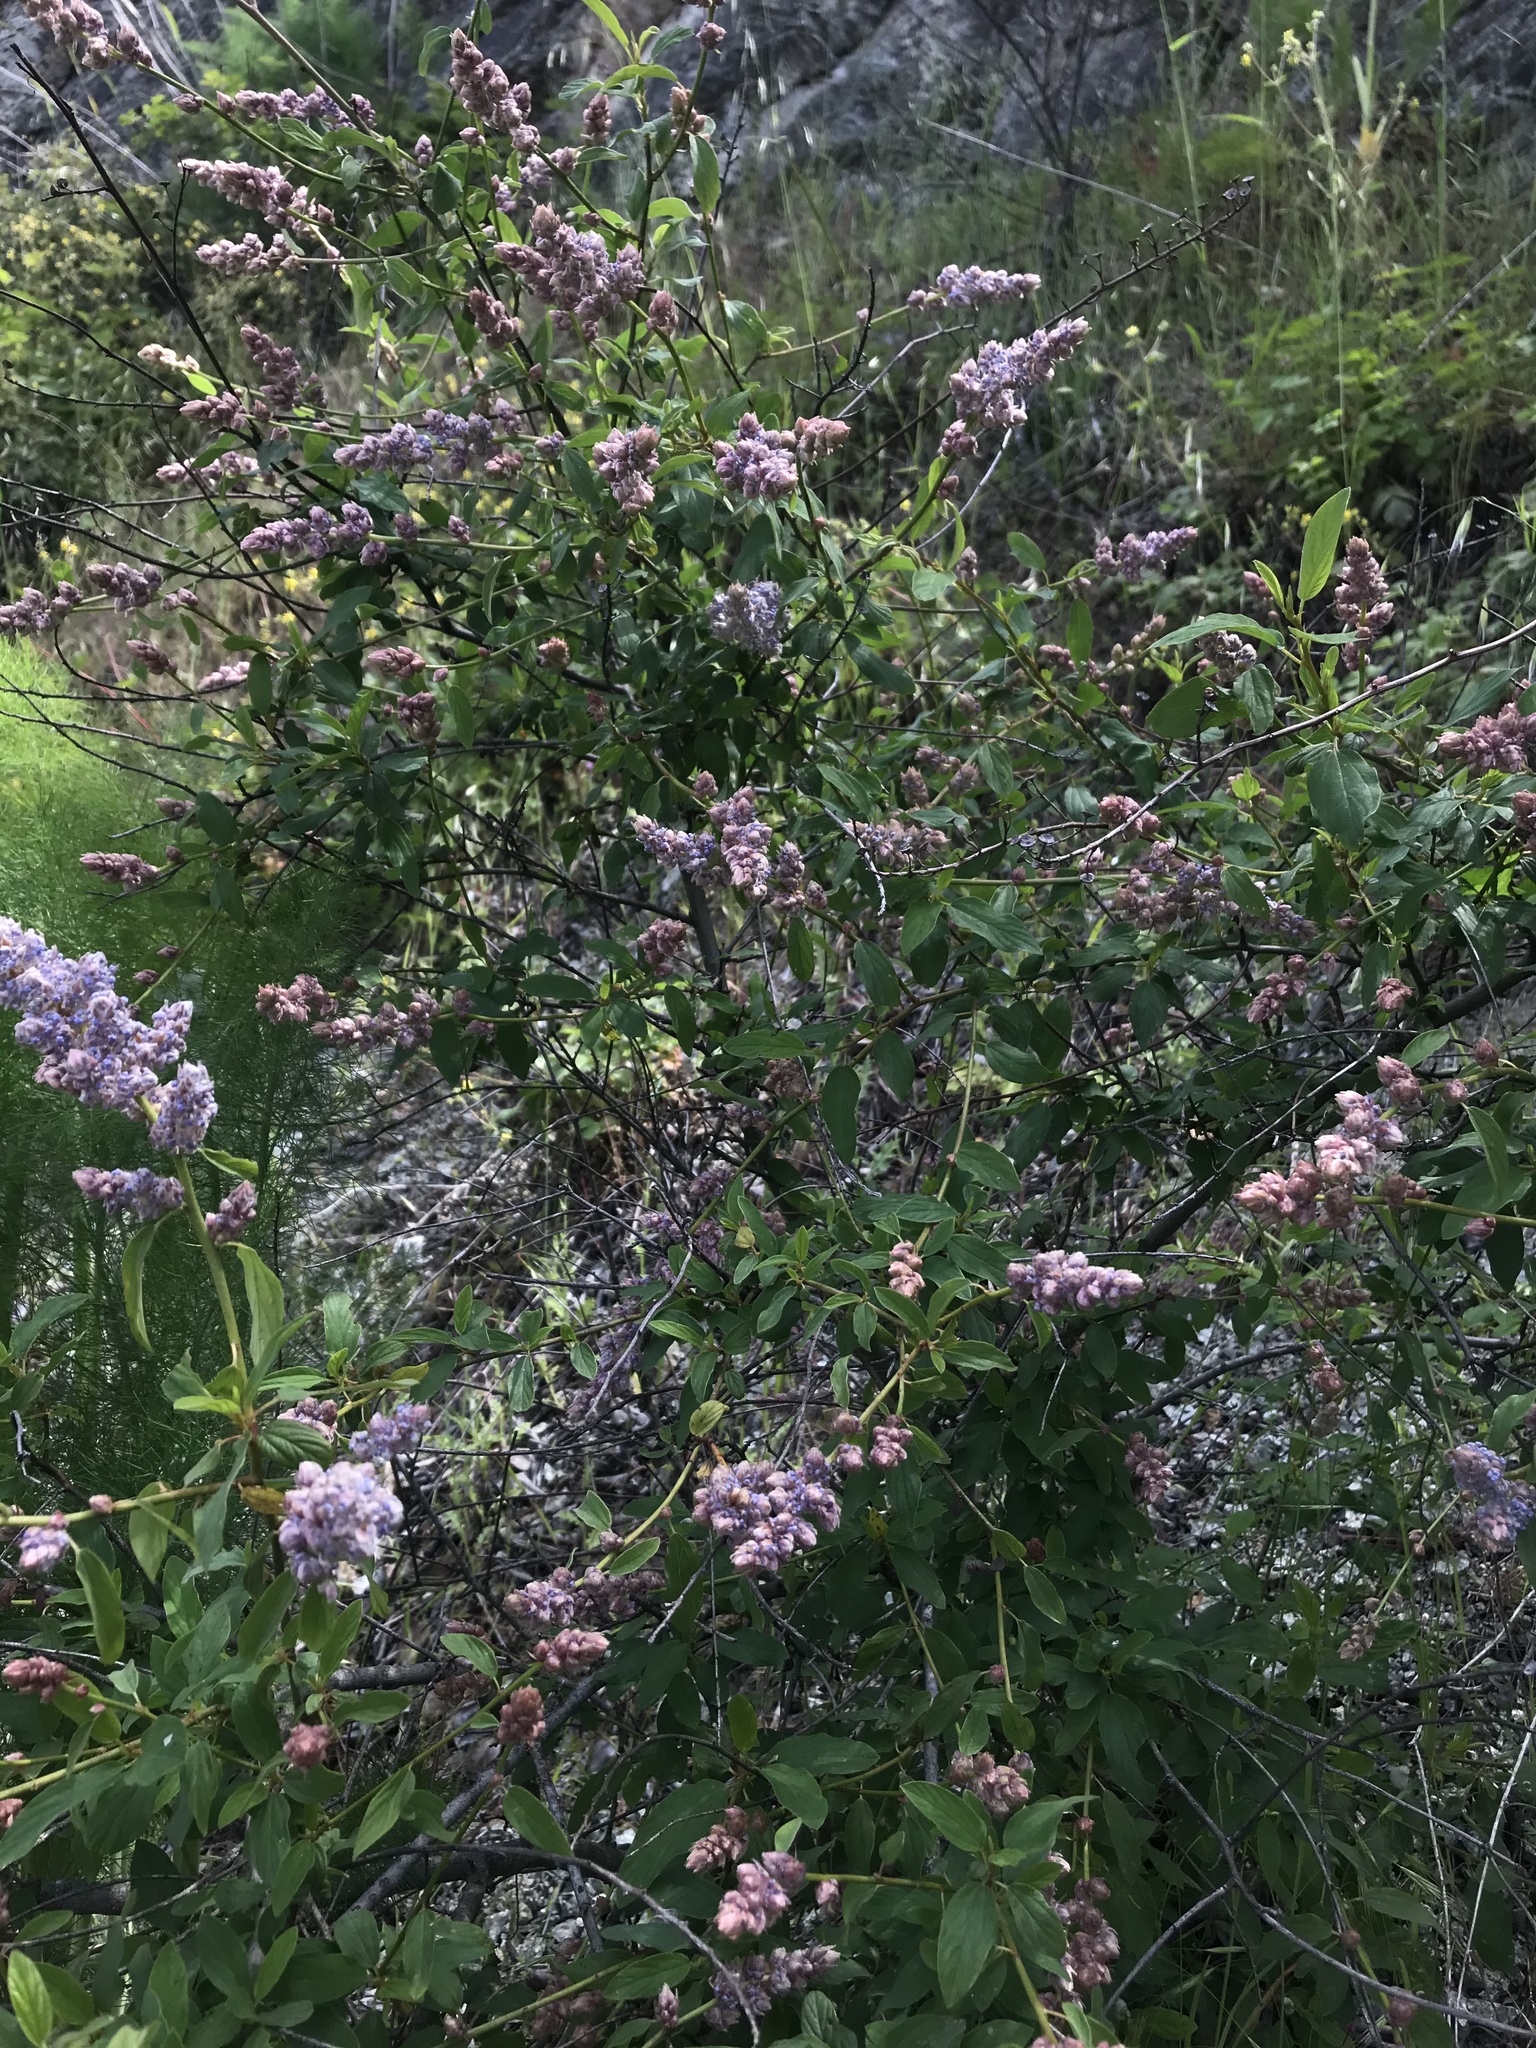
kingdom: Plantae
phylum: Tracheophyta
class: Magnoliopsida
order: Rosales
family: Rhamnaceae
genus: Ceanothus
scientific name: Ceanothus integerrimus
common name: Deerbrush ceanothus
